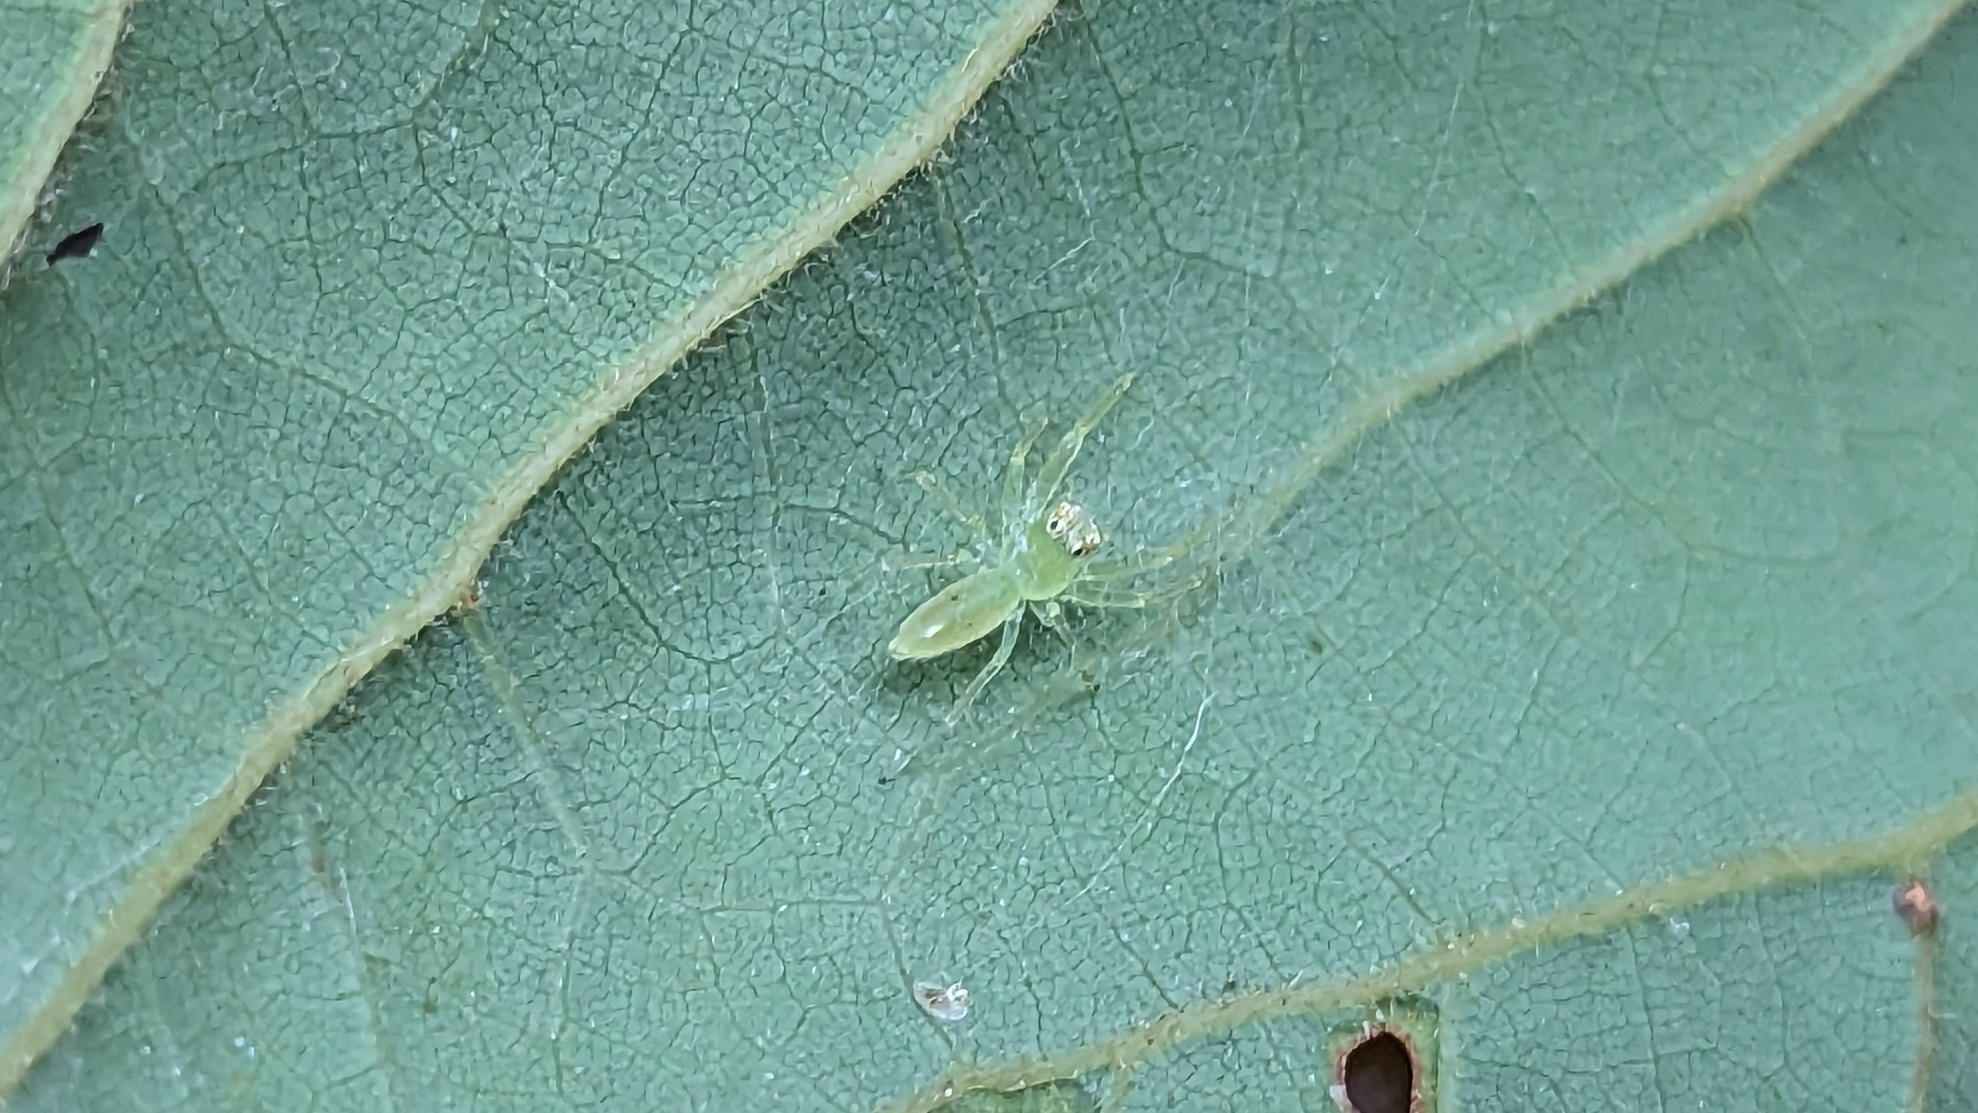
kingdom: Animalia
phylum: Arthropoda
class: Arachnida
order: Araneae
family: Salticidae
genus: Lyssomanes
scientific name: Lyssomanes viridis
